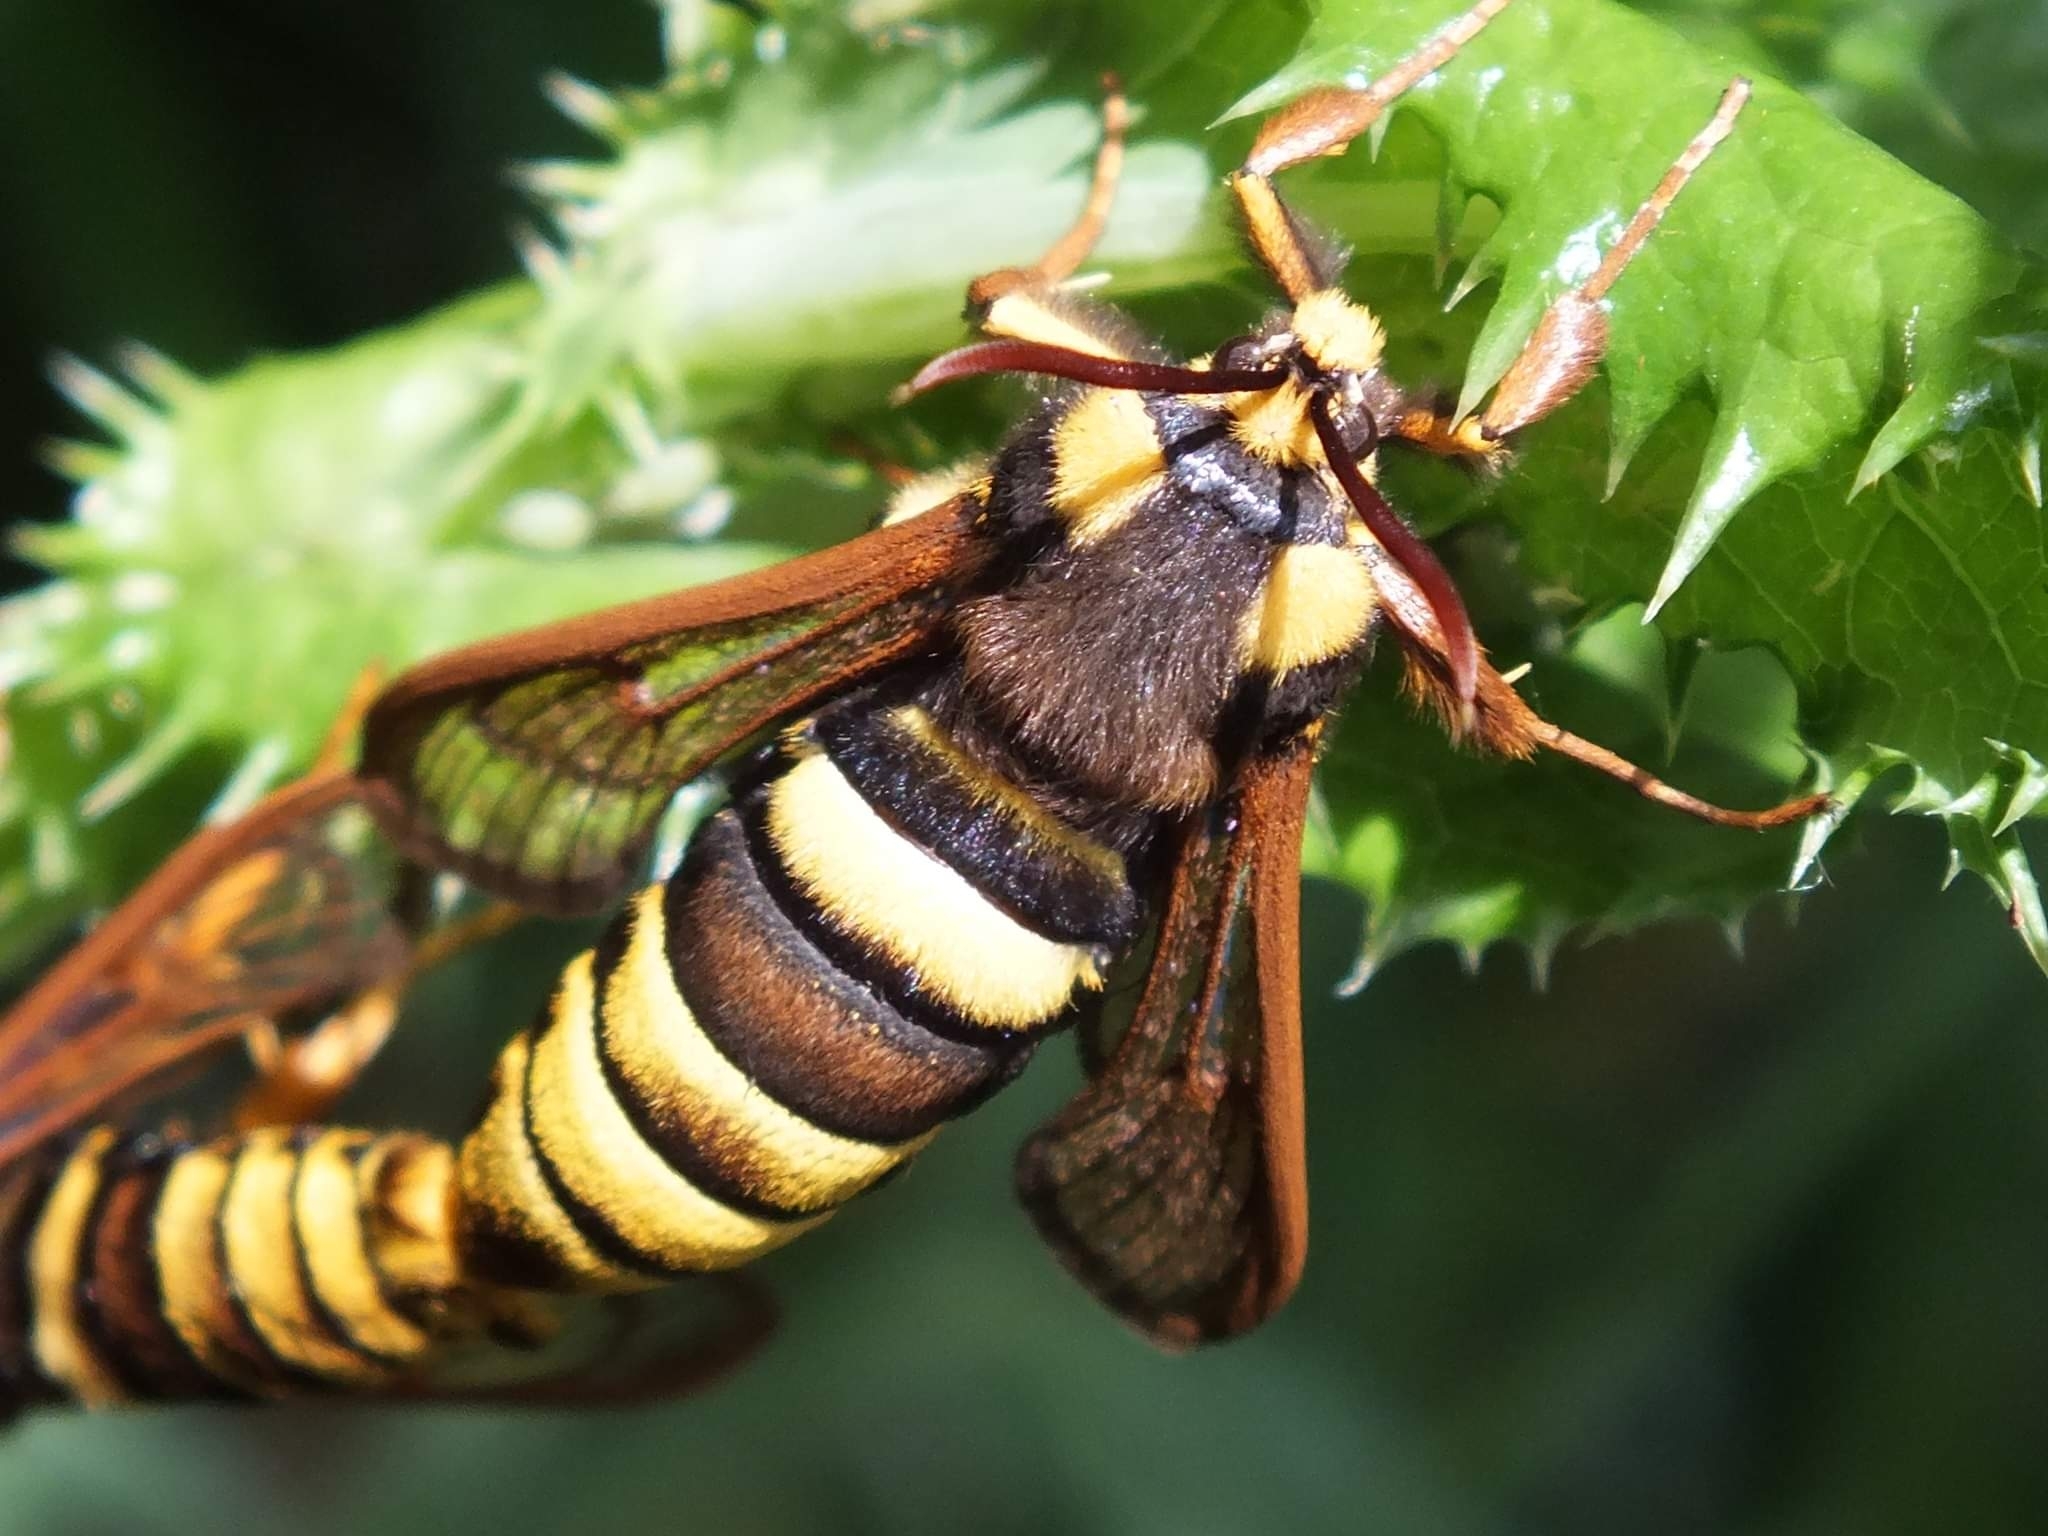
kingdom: Animalia
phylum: Arthropoda
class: Insecta
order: Lepidoptera
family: Sesiidae
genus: Sesia
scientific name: Sesia apiformis
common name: Hornet moth
